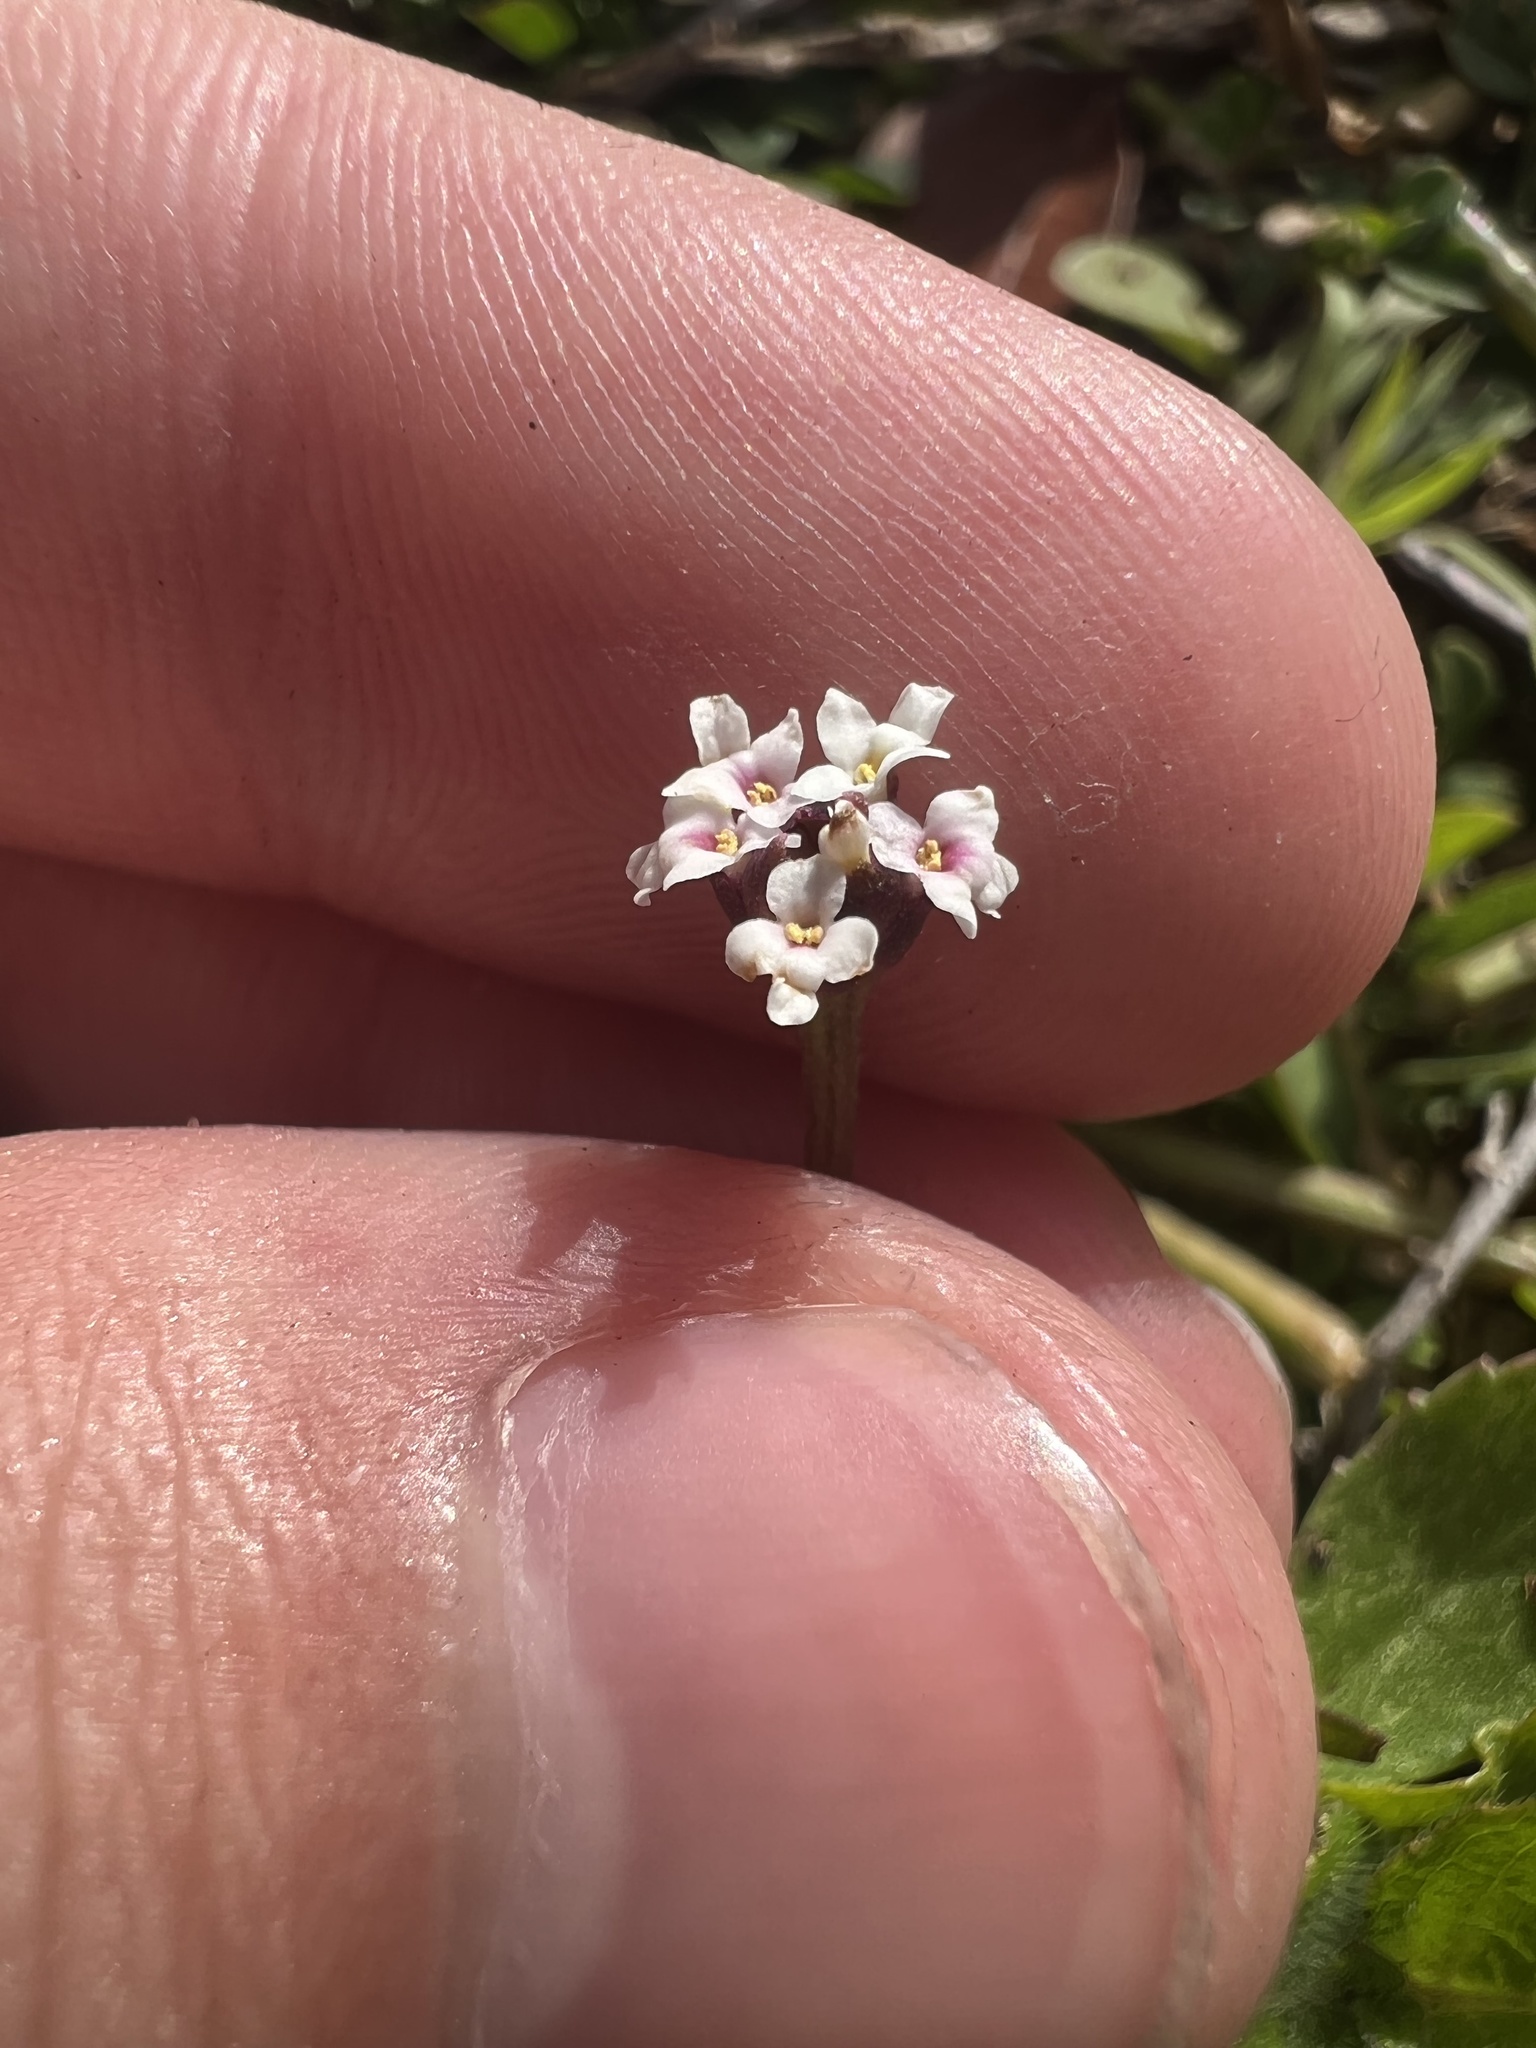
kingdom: Plantae
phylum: Tracheophyta
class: Magnoliopsida
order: Lamiales
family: Verbenaceae
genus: Phyla
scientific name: Phyla nodiflora
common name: Frogfruit
